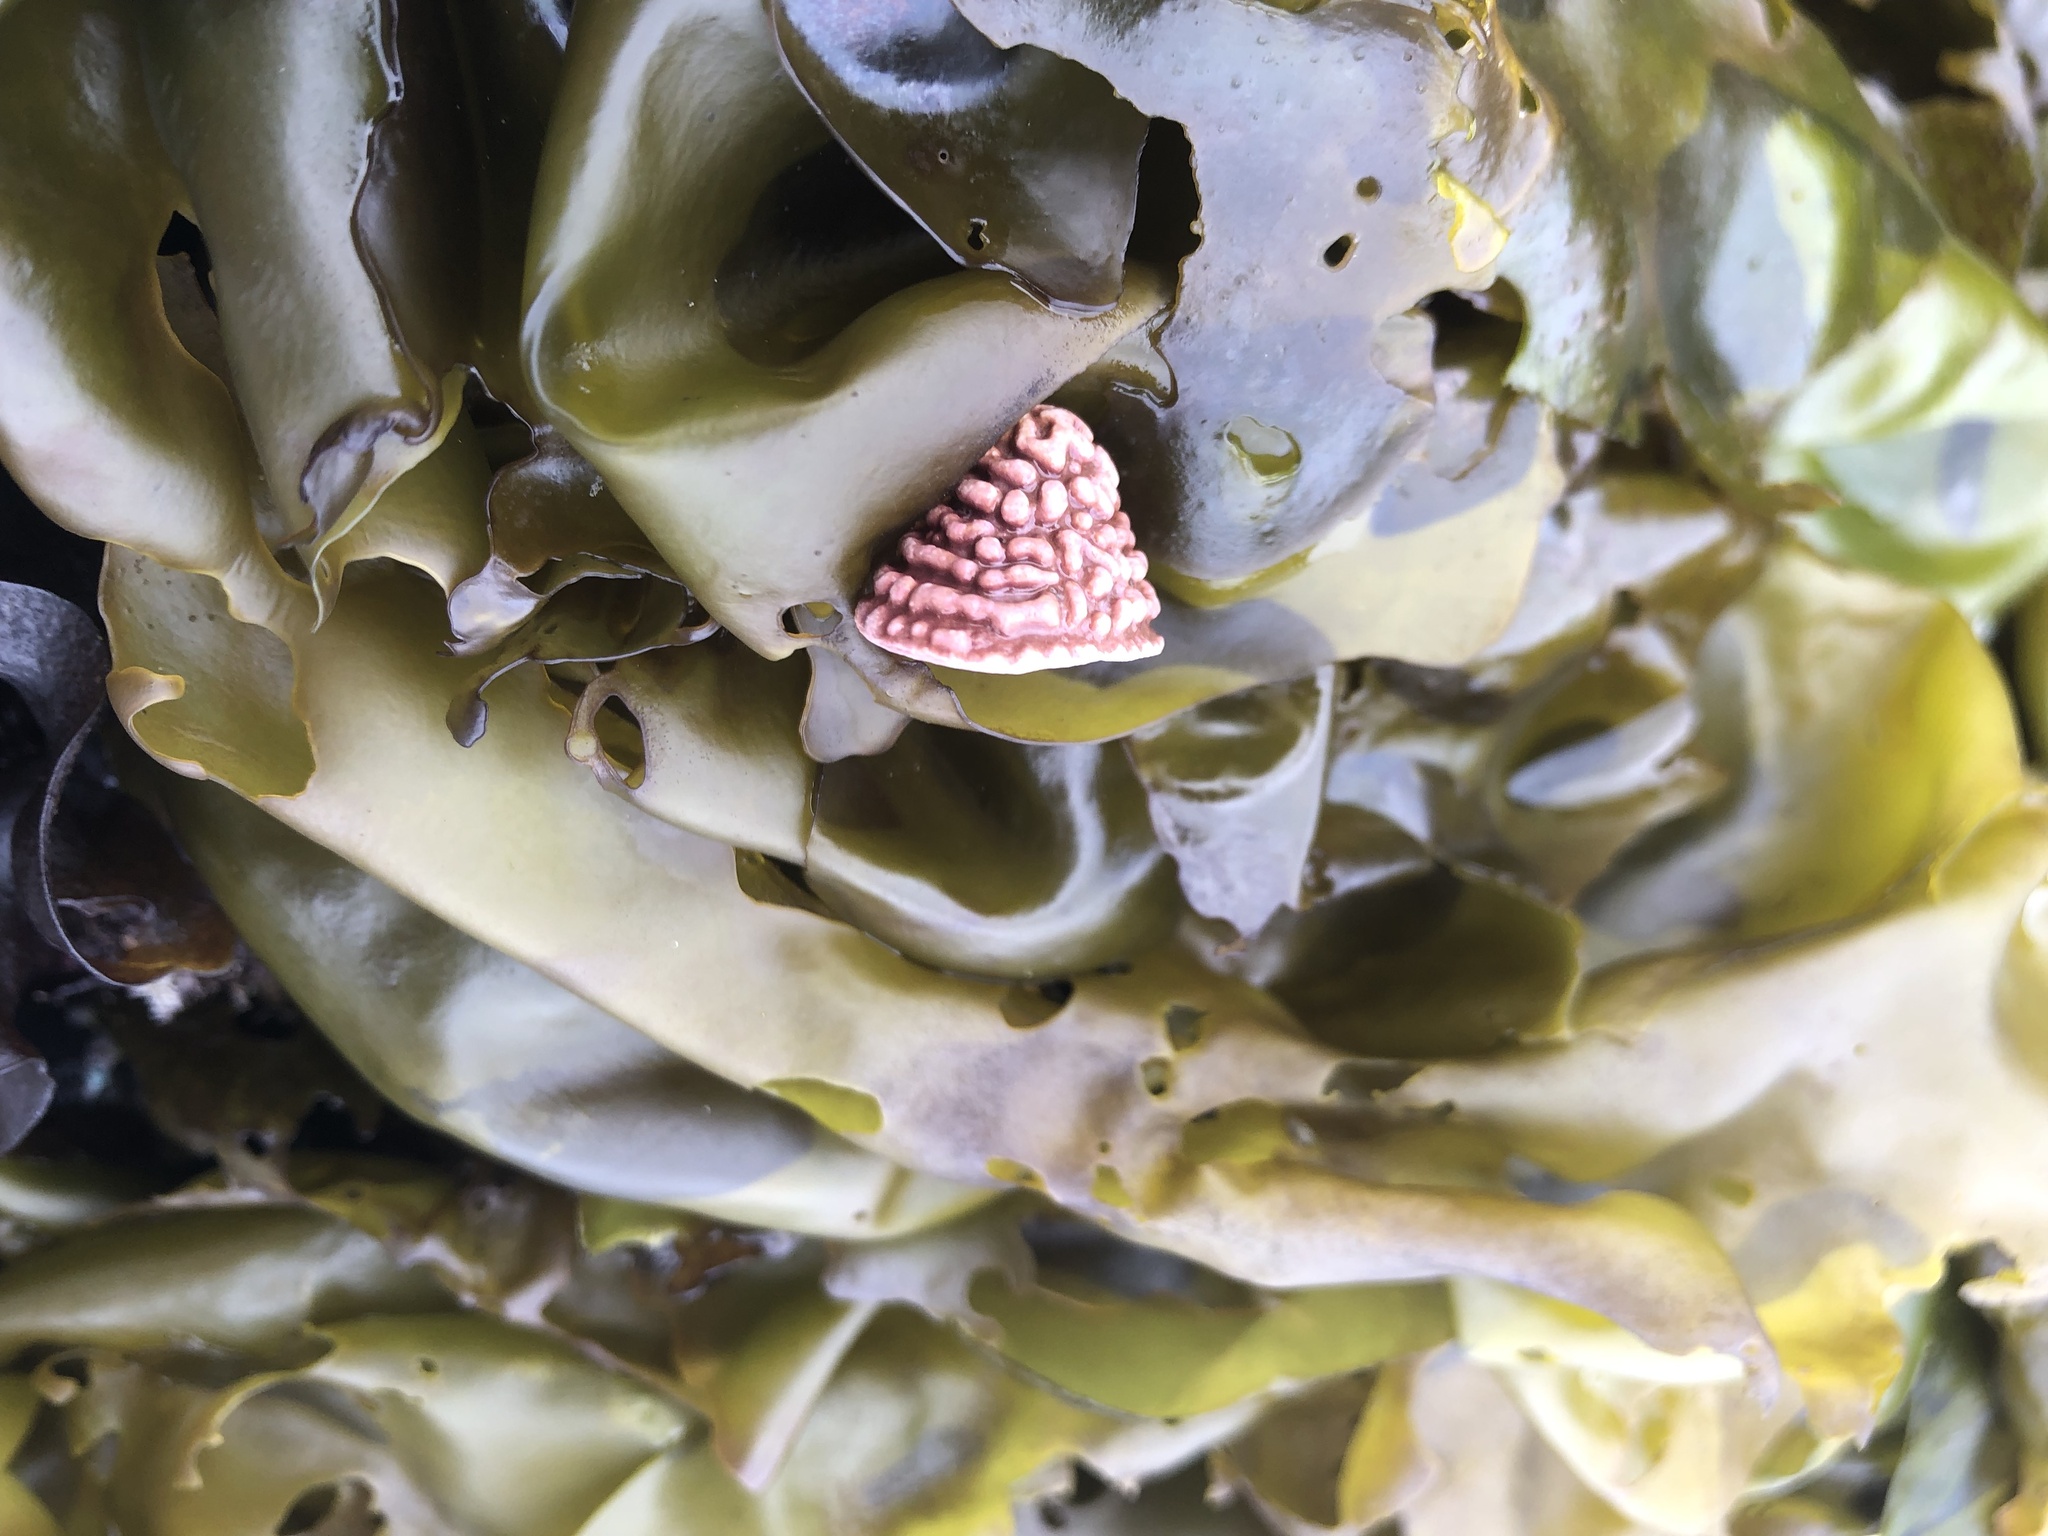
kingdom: Animalia
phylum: Mollusca
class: Gastropoda
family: Acmaeidae
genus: Acmaea
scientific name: Acmaea mitra
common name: Pacific white cap limpet
